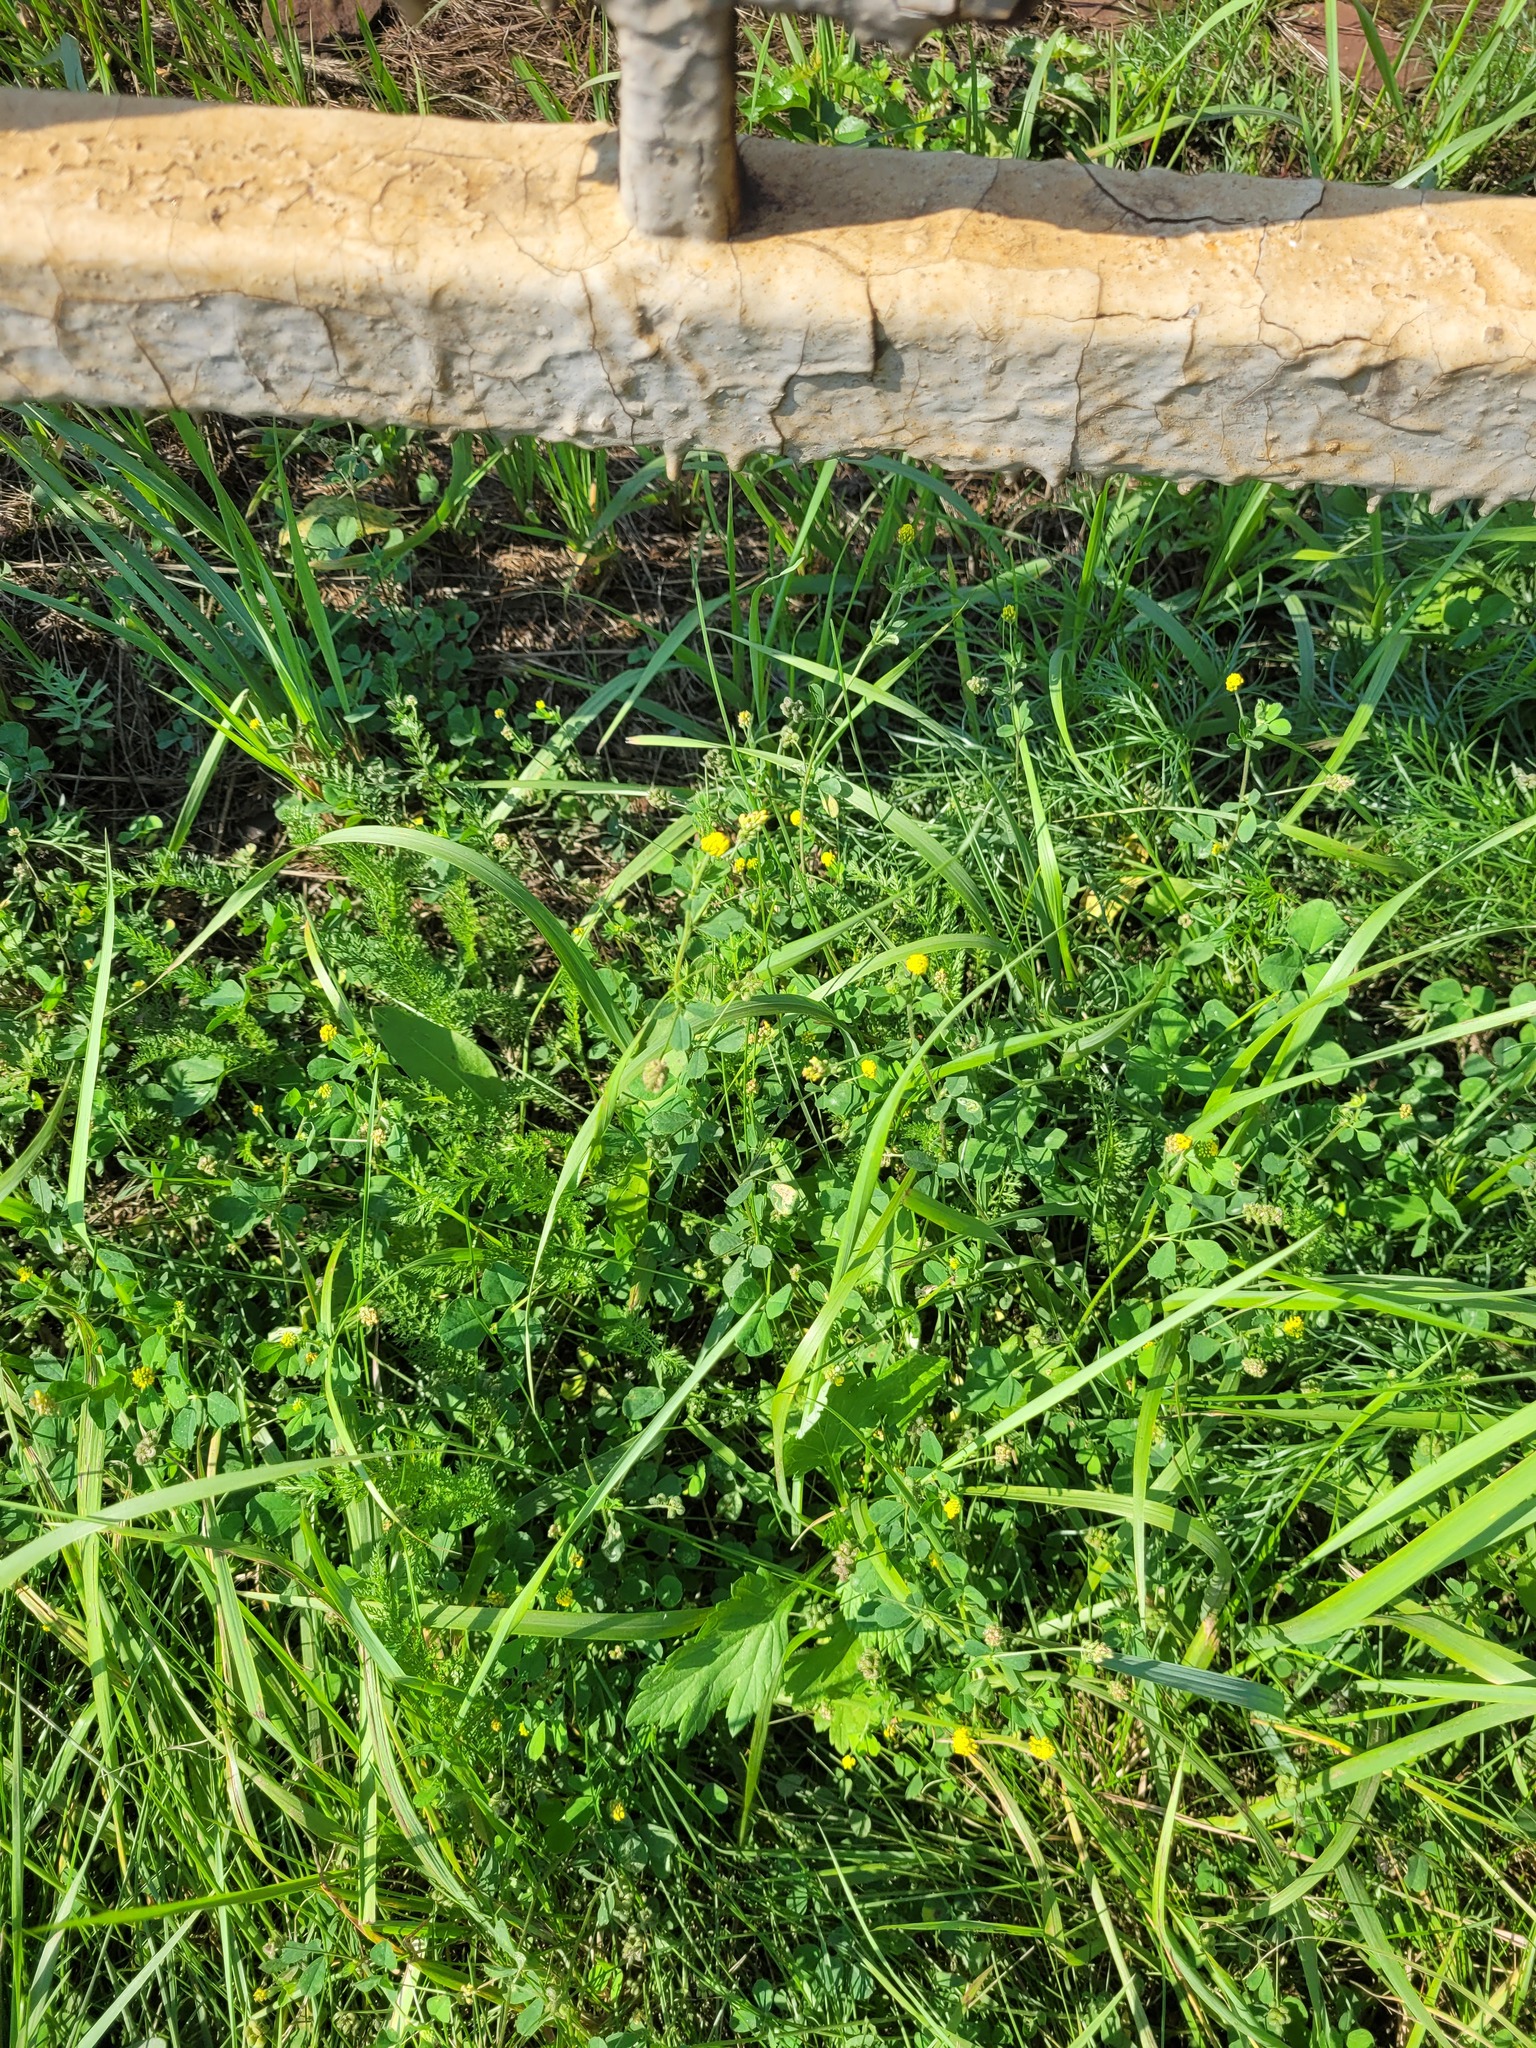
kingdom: Plantae
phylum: Tracheophyta
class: Magnoliopsida
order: Fabales
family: Fabaceae
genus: Medicago
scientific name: Medicago lupulina
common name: Black medick
